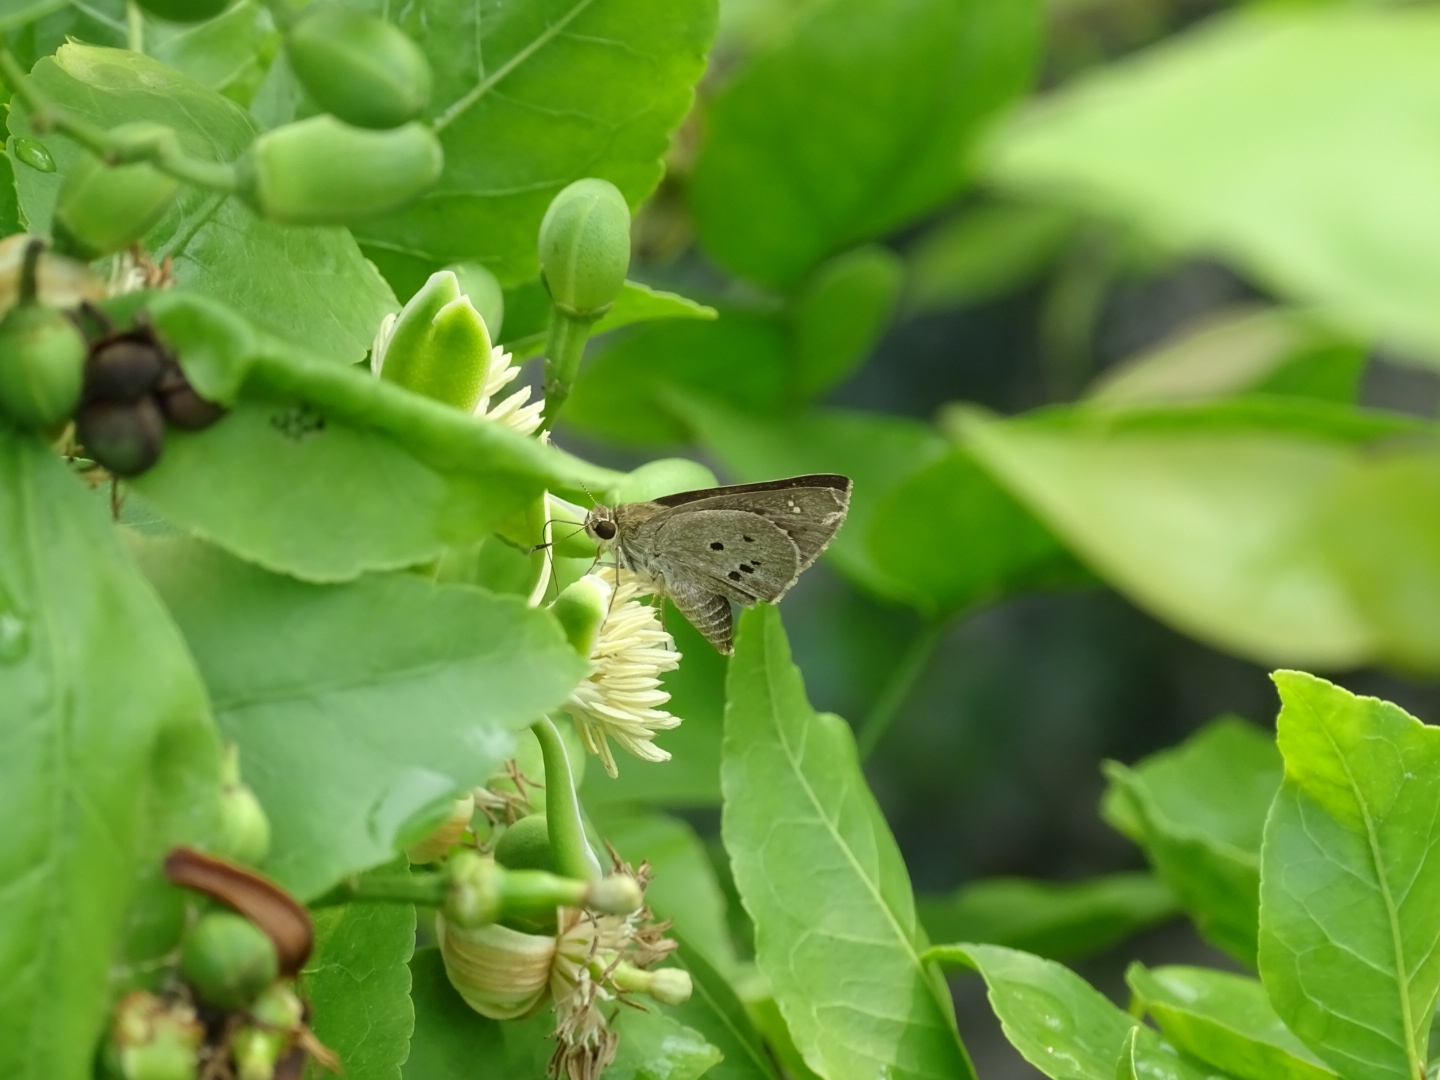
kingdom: Animalia
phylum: Arthropoda
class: Insecta
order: Lepidoptera
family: Hesperiidae
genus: Suastus
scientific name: Suastus gremius
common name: Indian palm bob
